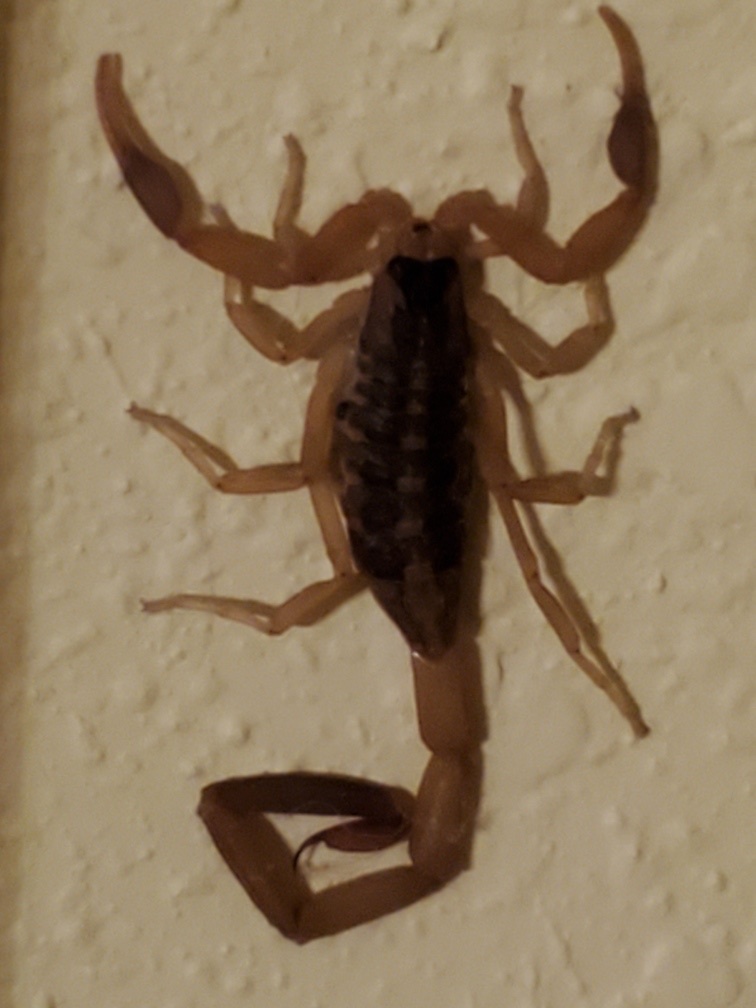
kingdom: Animalia
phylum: Arthropoda
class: Arachnida
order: Scorpiones
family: Buthidae
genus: Centruroides
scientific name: Centruroides vittatus
